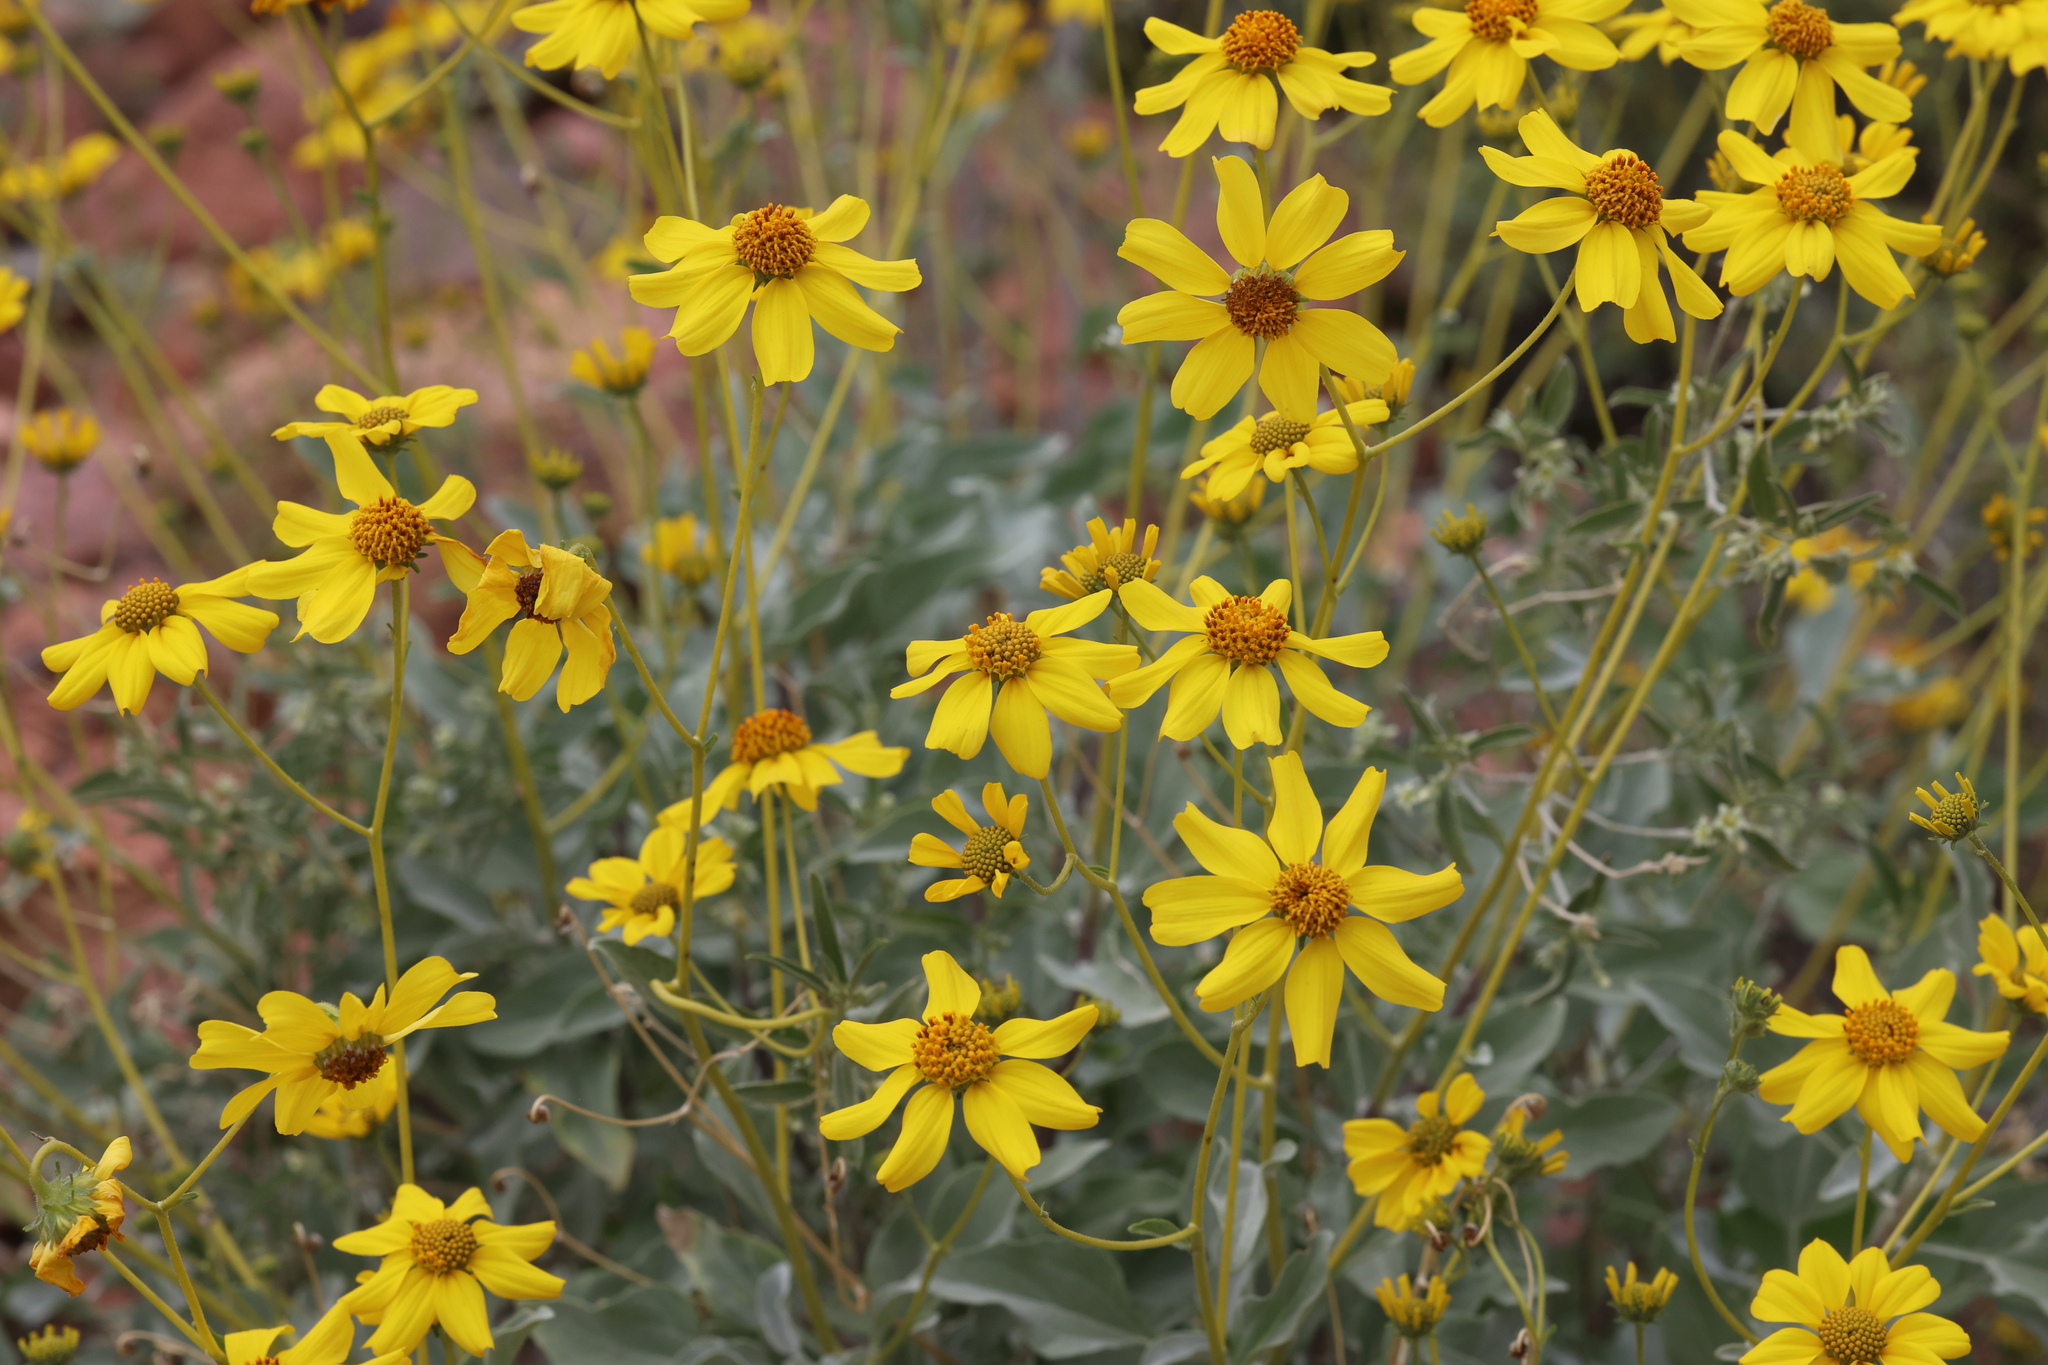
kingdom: Plantae
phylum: Tracheophyta
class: Magnoliopsida
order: Asterales
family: Asteraceae
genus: Encelia
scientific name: Encelia farinosa
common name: Brittlebush
